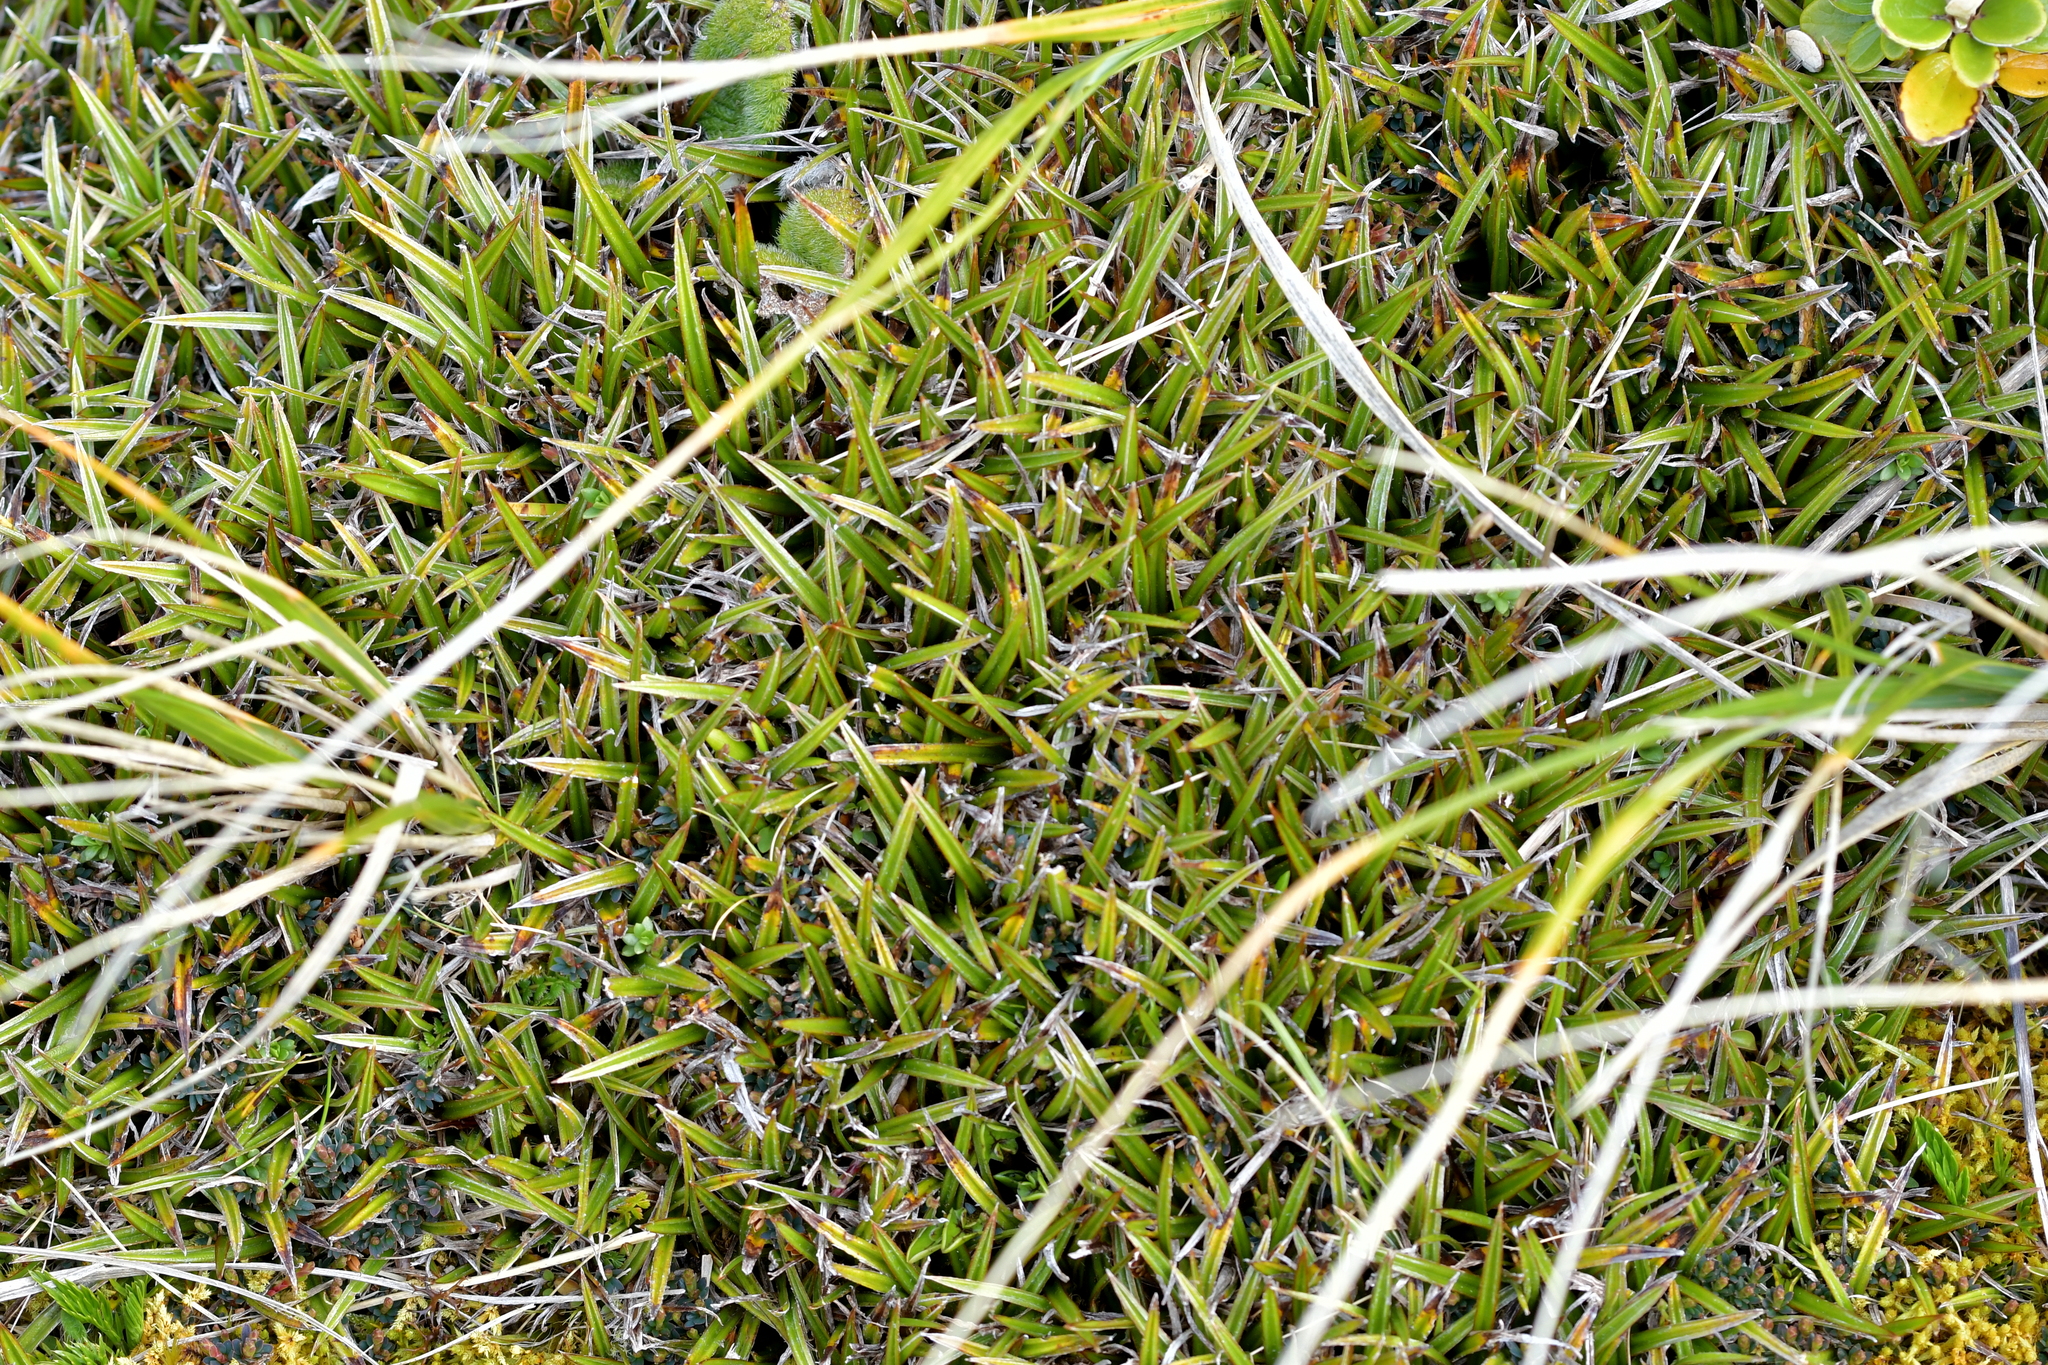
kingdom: Plantae
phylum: Tracheophyta
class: Liliopsida
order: Asparagales
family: Asteliaceae
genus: Astelia
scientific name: Astelia linearis
